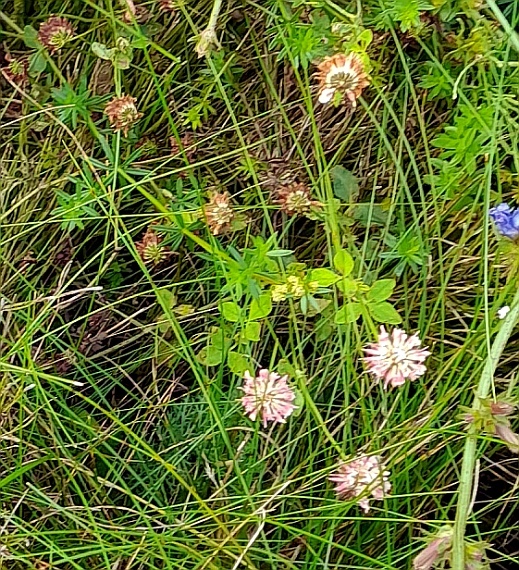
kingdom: Plantae
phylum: Tracheophyta
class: Magnoliopsida
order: Fabales
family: Fabaceae
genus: Trifolium
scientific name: Trifolium hybridum
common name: Alsike clover
